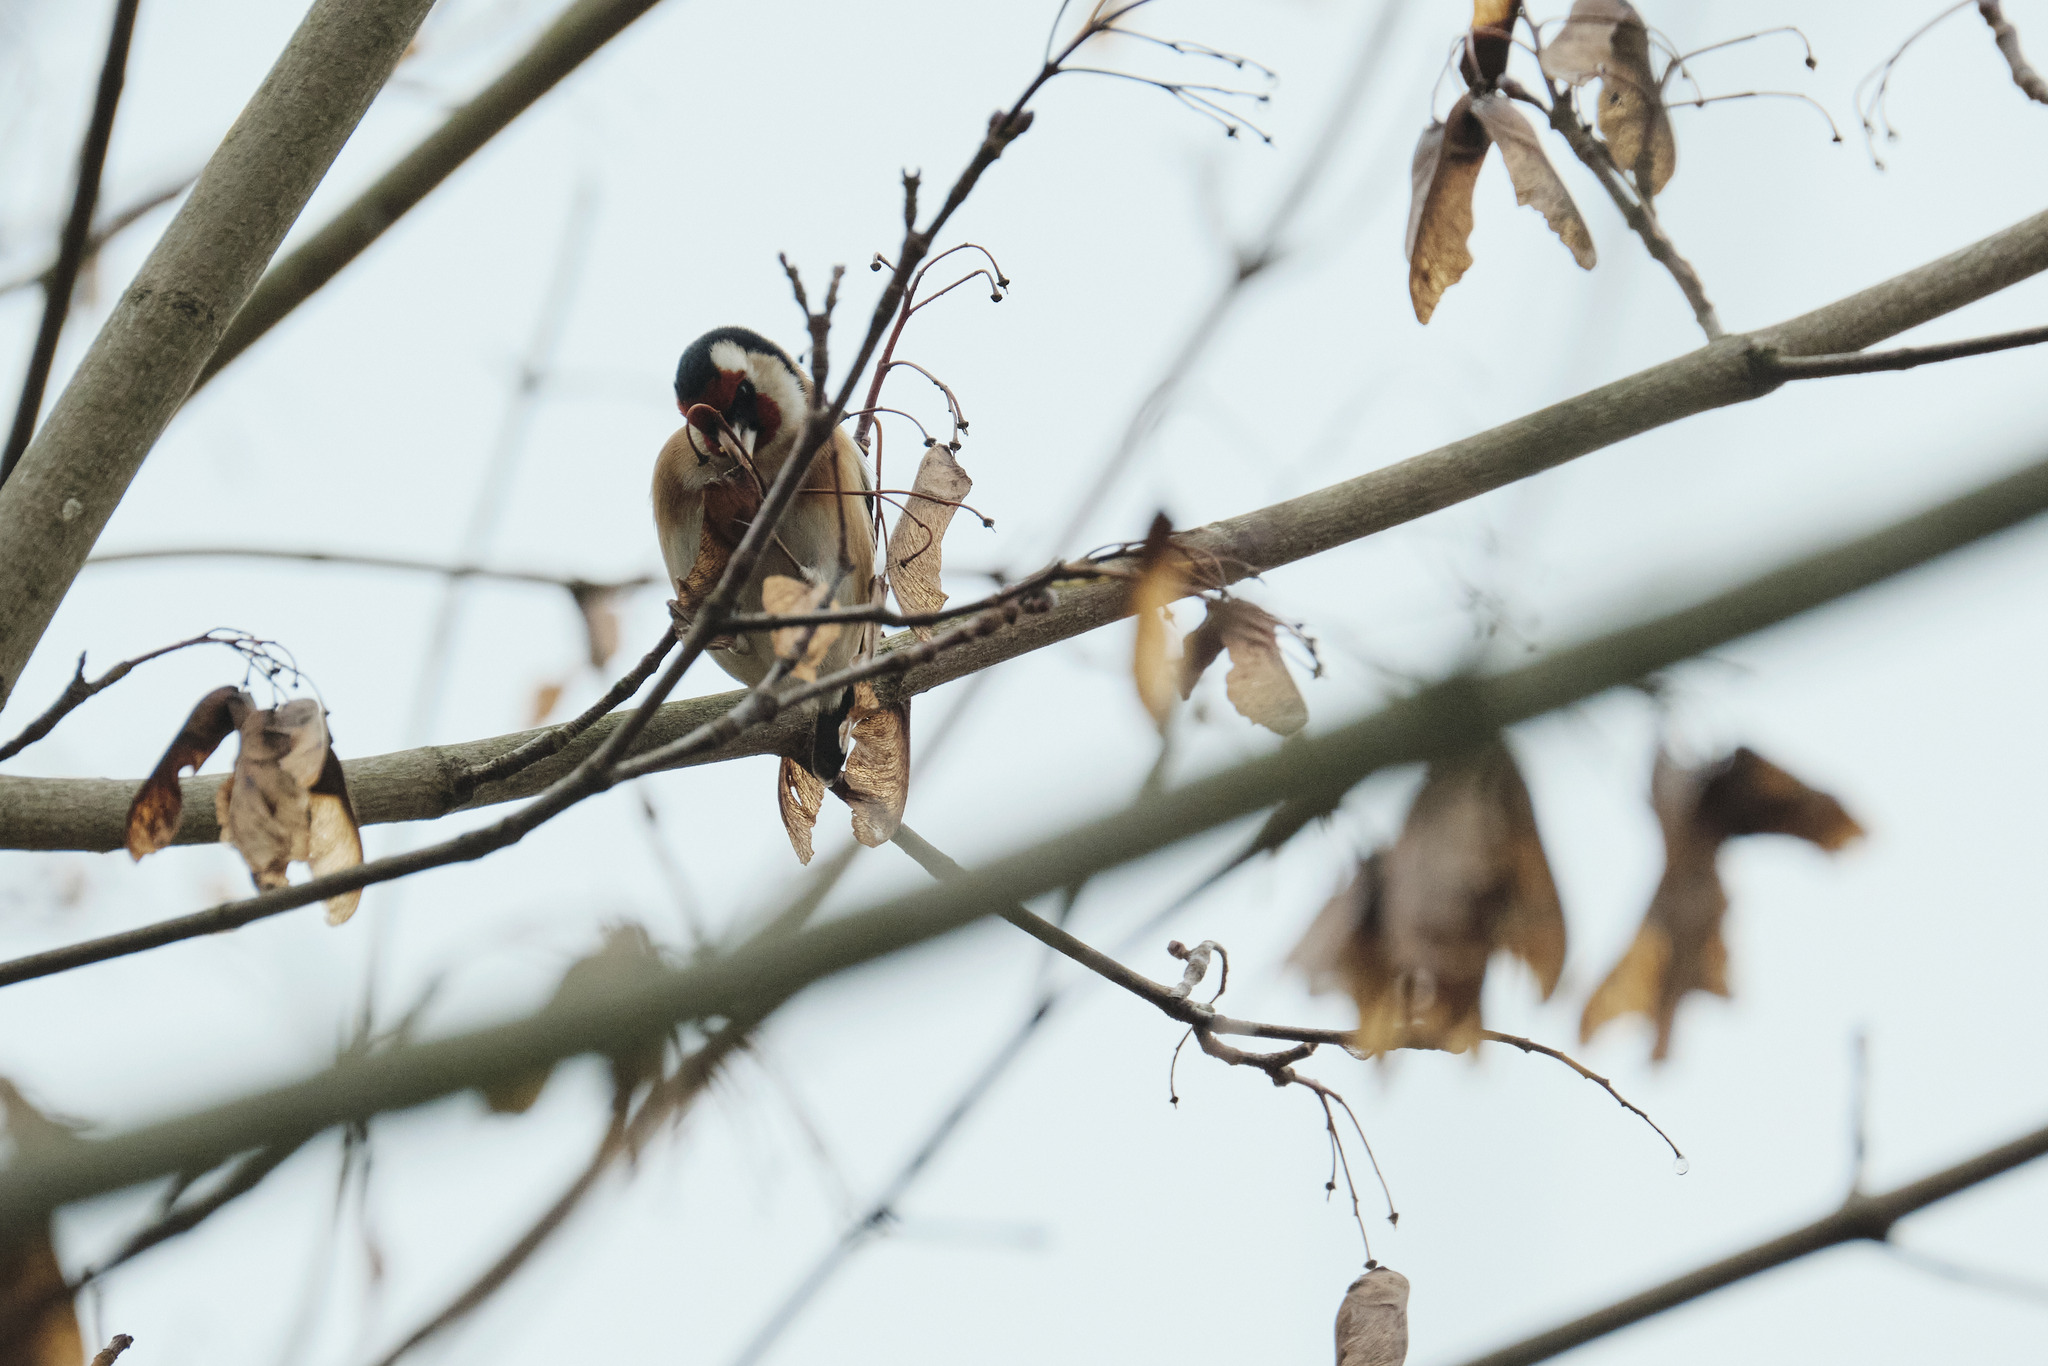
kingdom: Animalia
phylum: Chordata
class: Aves
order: Passeriformes
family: Fringillidae
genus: Carduelis
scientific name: Carduelis carduelis
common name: European goldfinch
